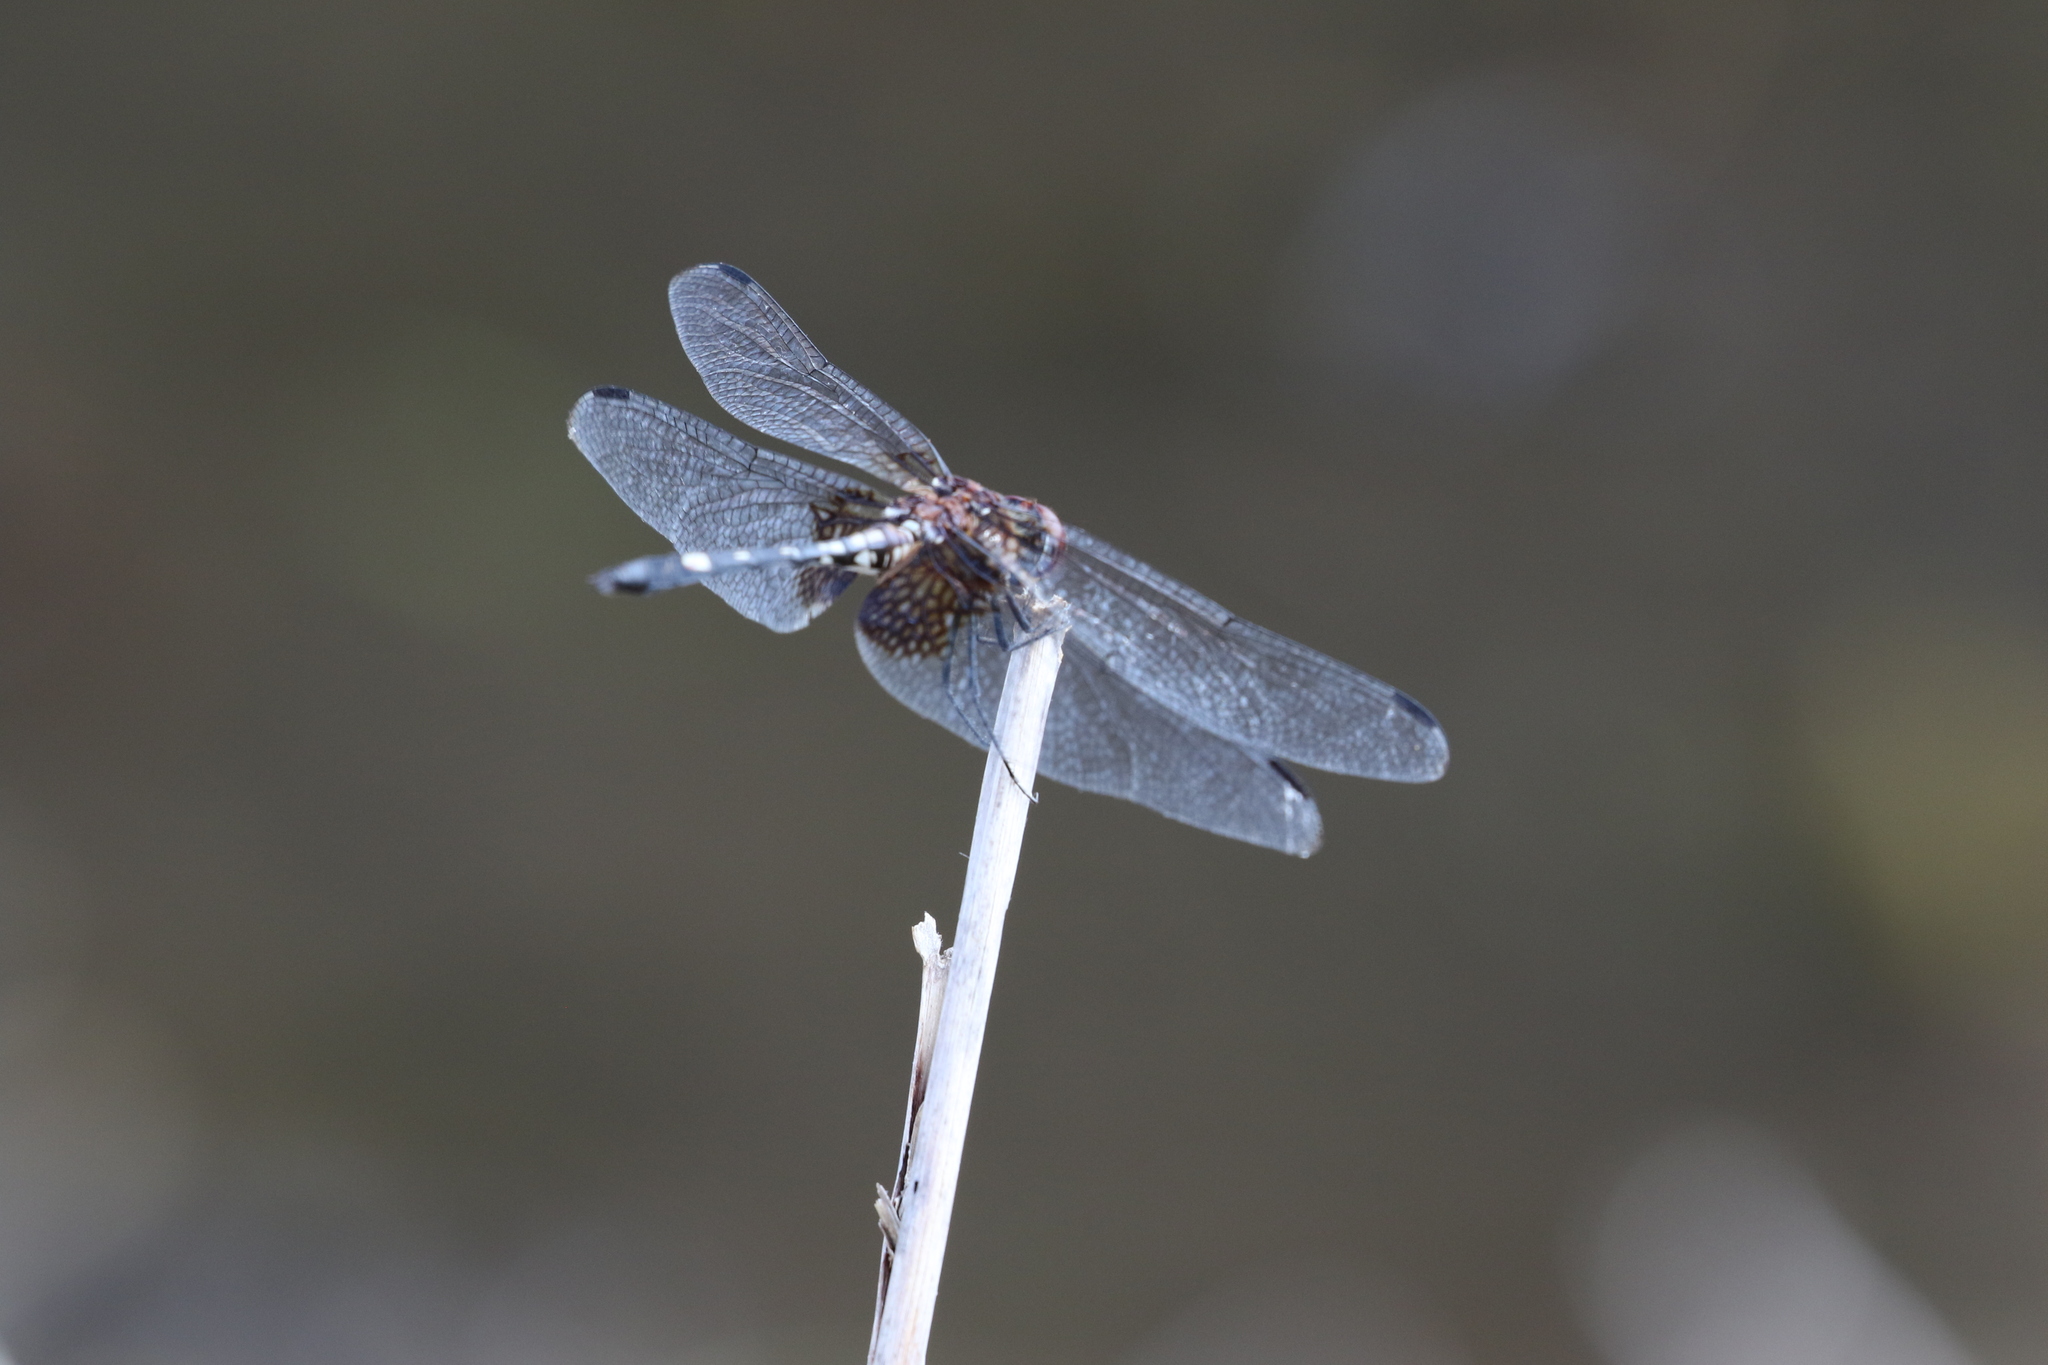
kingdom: Animalia
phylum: Arthropoda
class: Insecta
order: Odonata
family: Libellulidae
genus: Dythemis
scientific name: Dythemis fugax
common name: Checkered setwing
